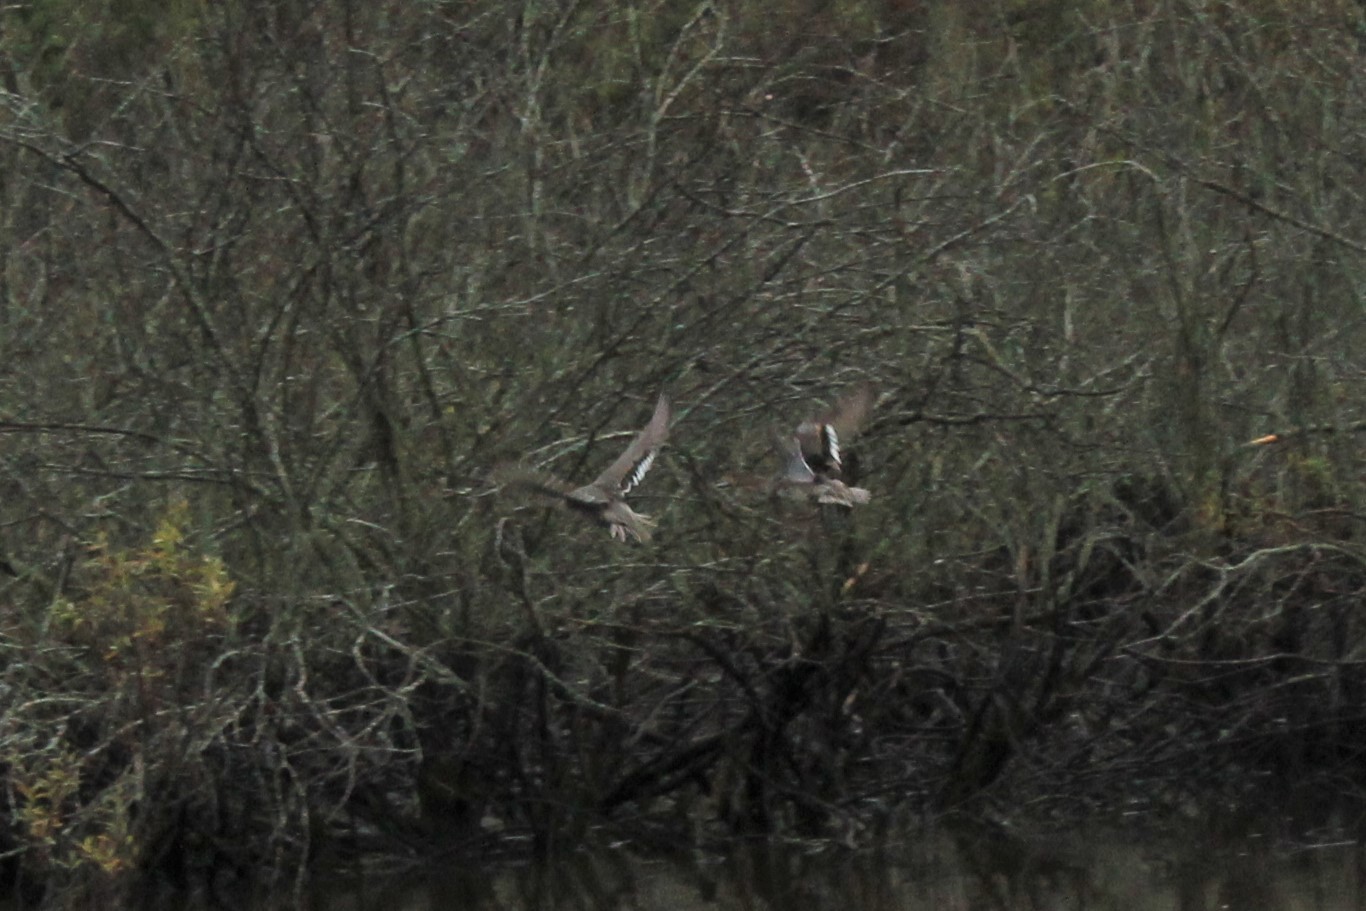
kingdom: Animalia
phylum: Chordata
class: Aves
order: Anseriformes
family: Anatidae
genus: Anas
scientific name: Anas acuta
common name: Northern pintail
